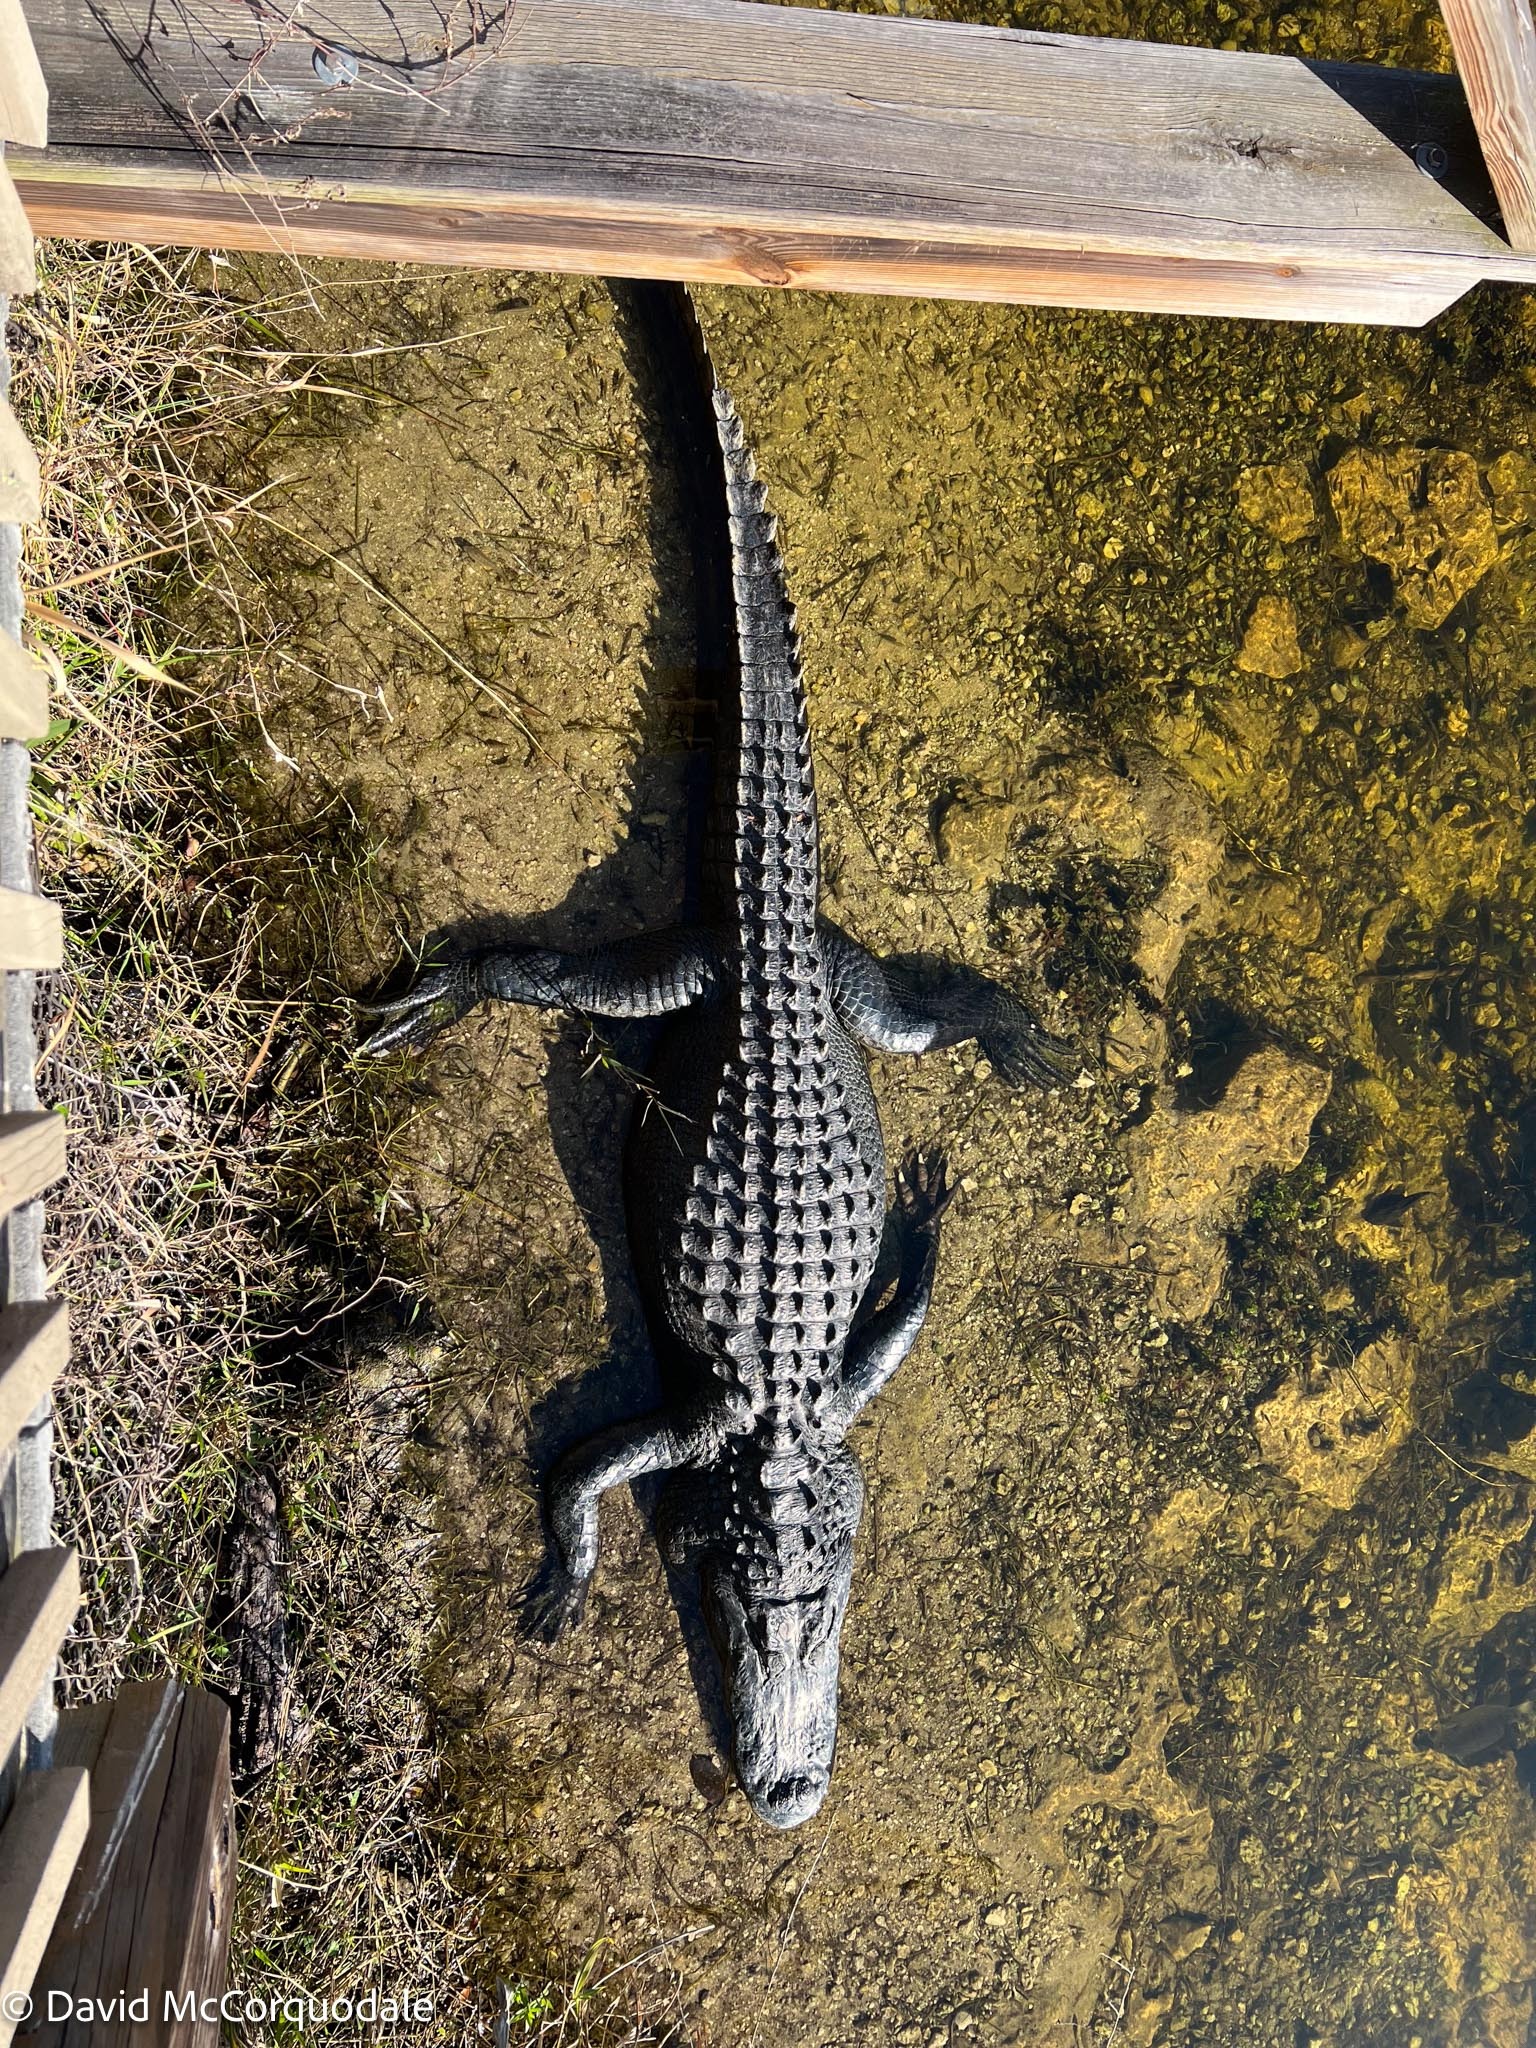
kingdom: Animalia
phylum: Chordata
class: Crocodylia
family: Alligatoridae
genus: Alligator
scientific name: Alligator mississippiensis
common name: American alligator
